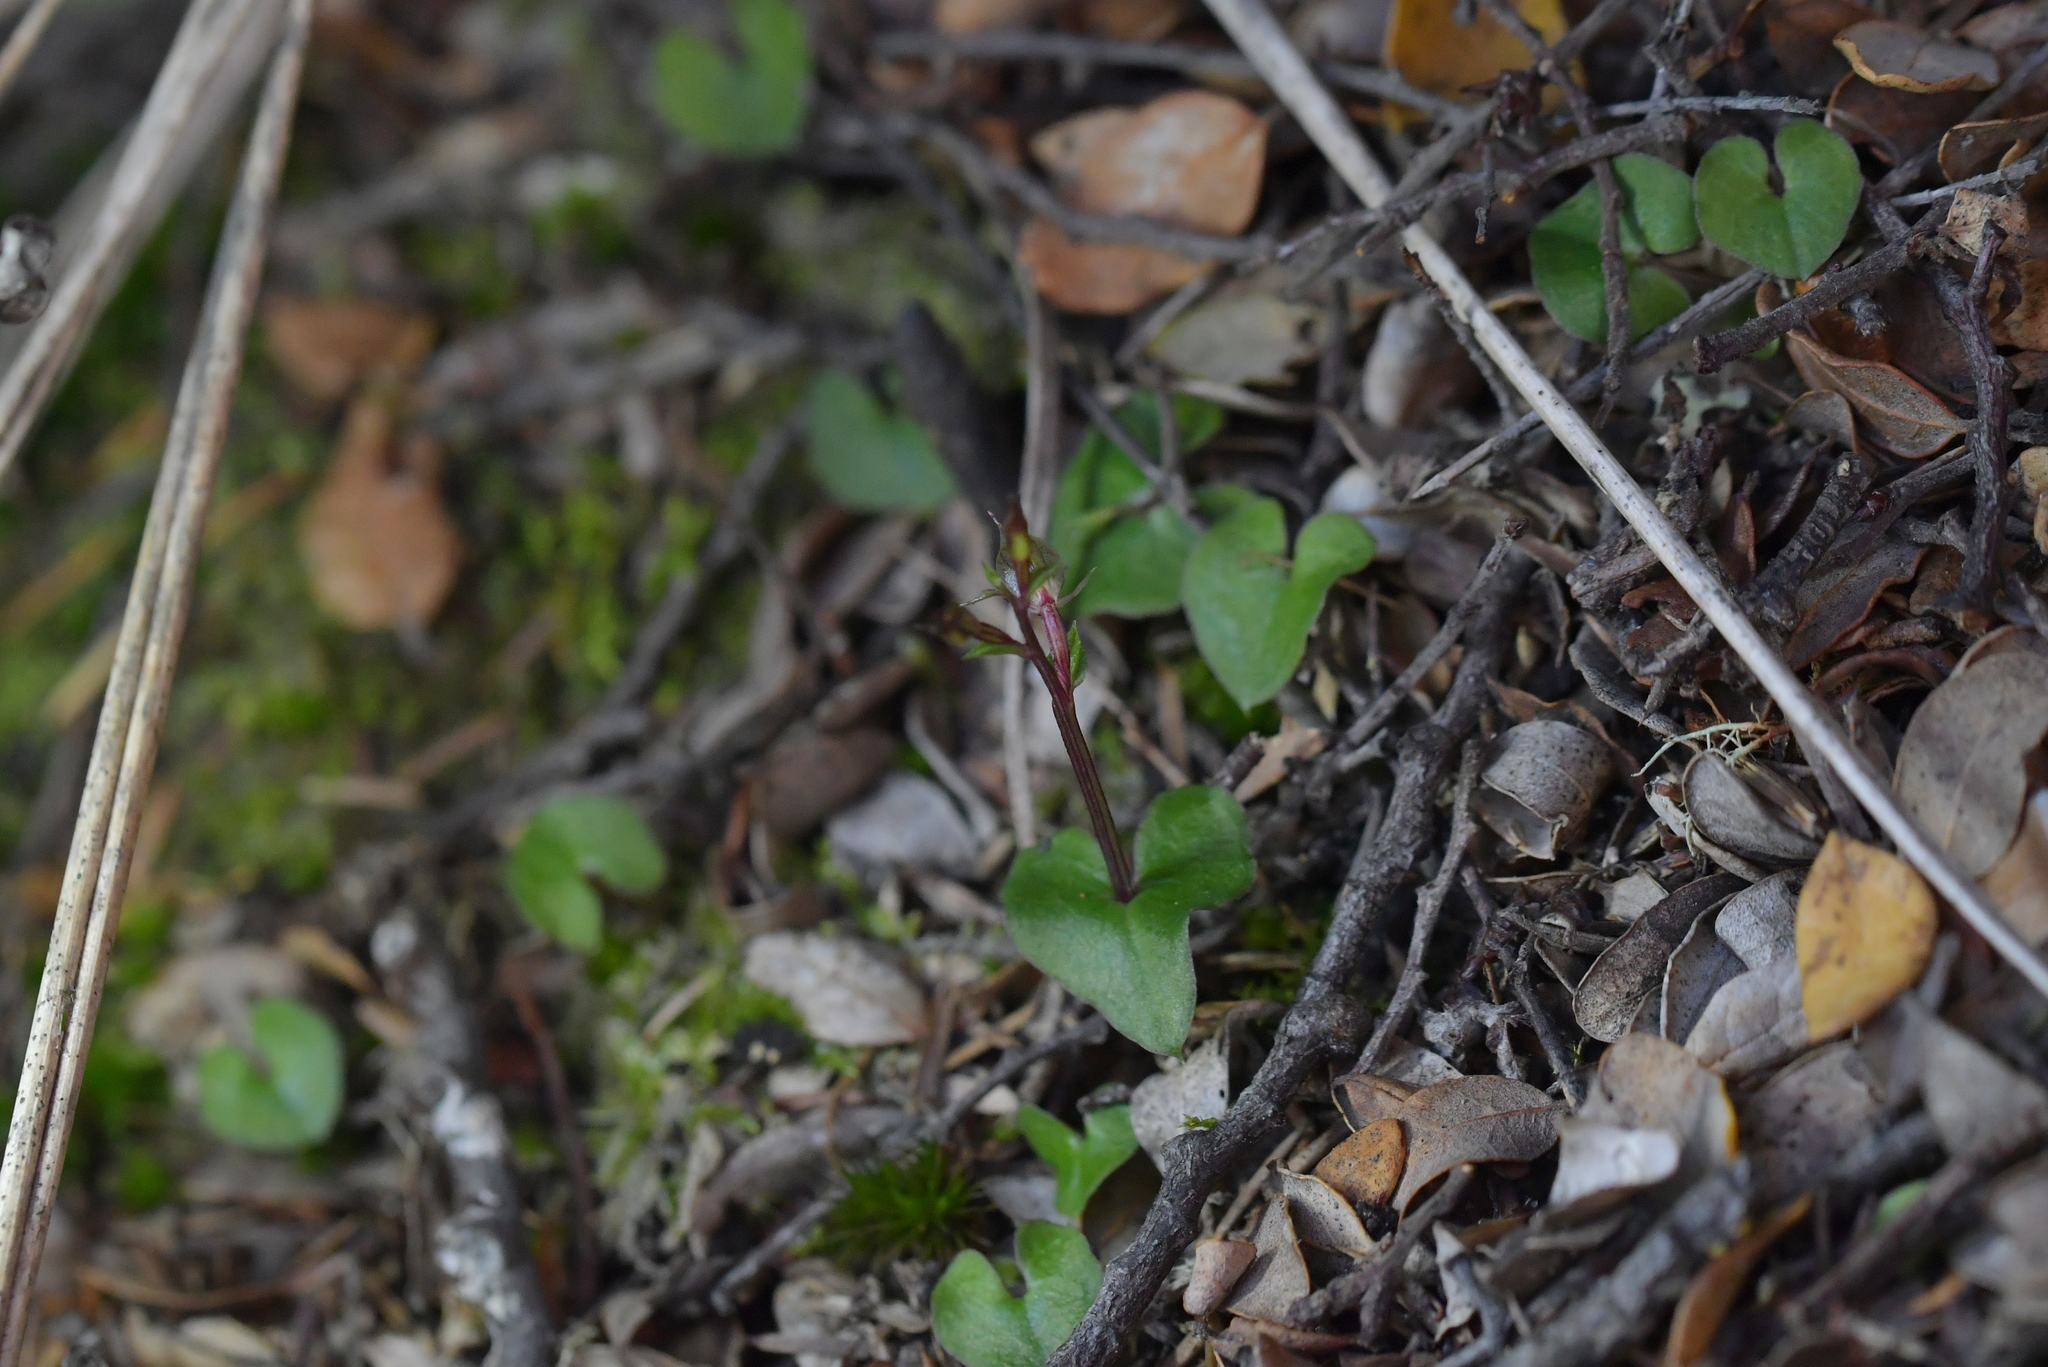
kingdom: Plantae
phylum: Tracheophyta
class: Liliopsida
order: Asparagales
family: Orchidaceae
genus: Acianthus
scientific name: Acianthus sinclairii
